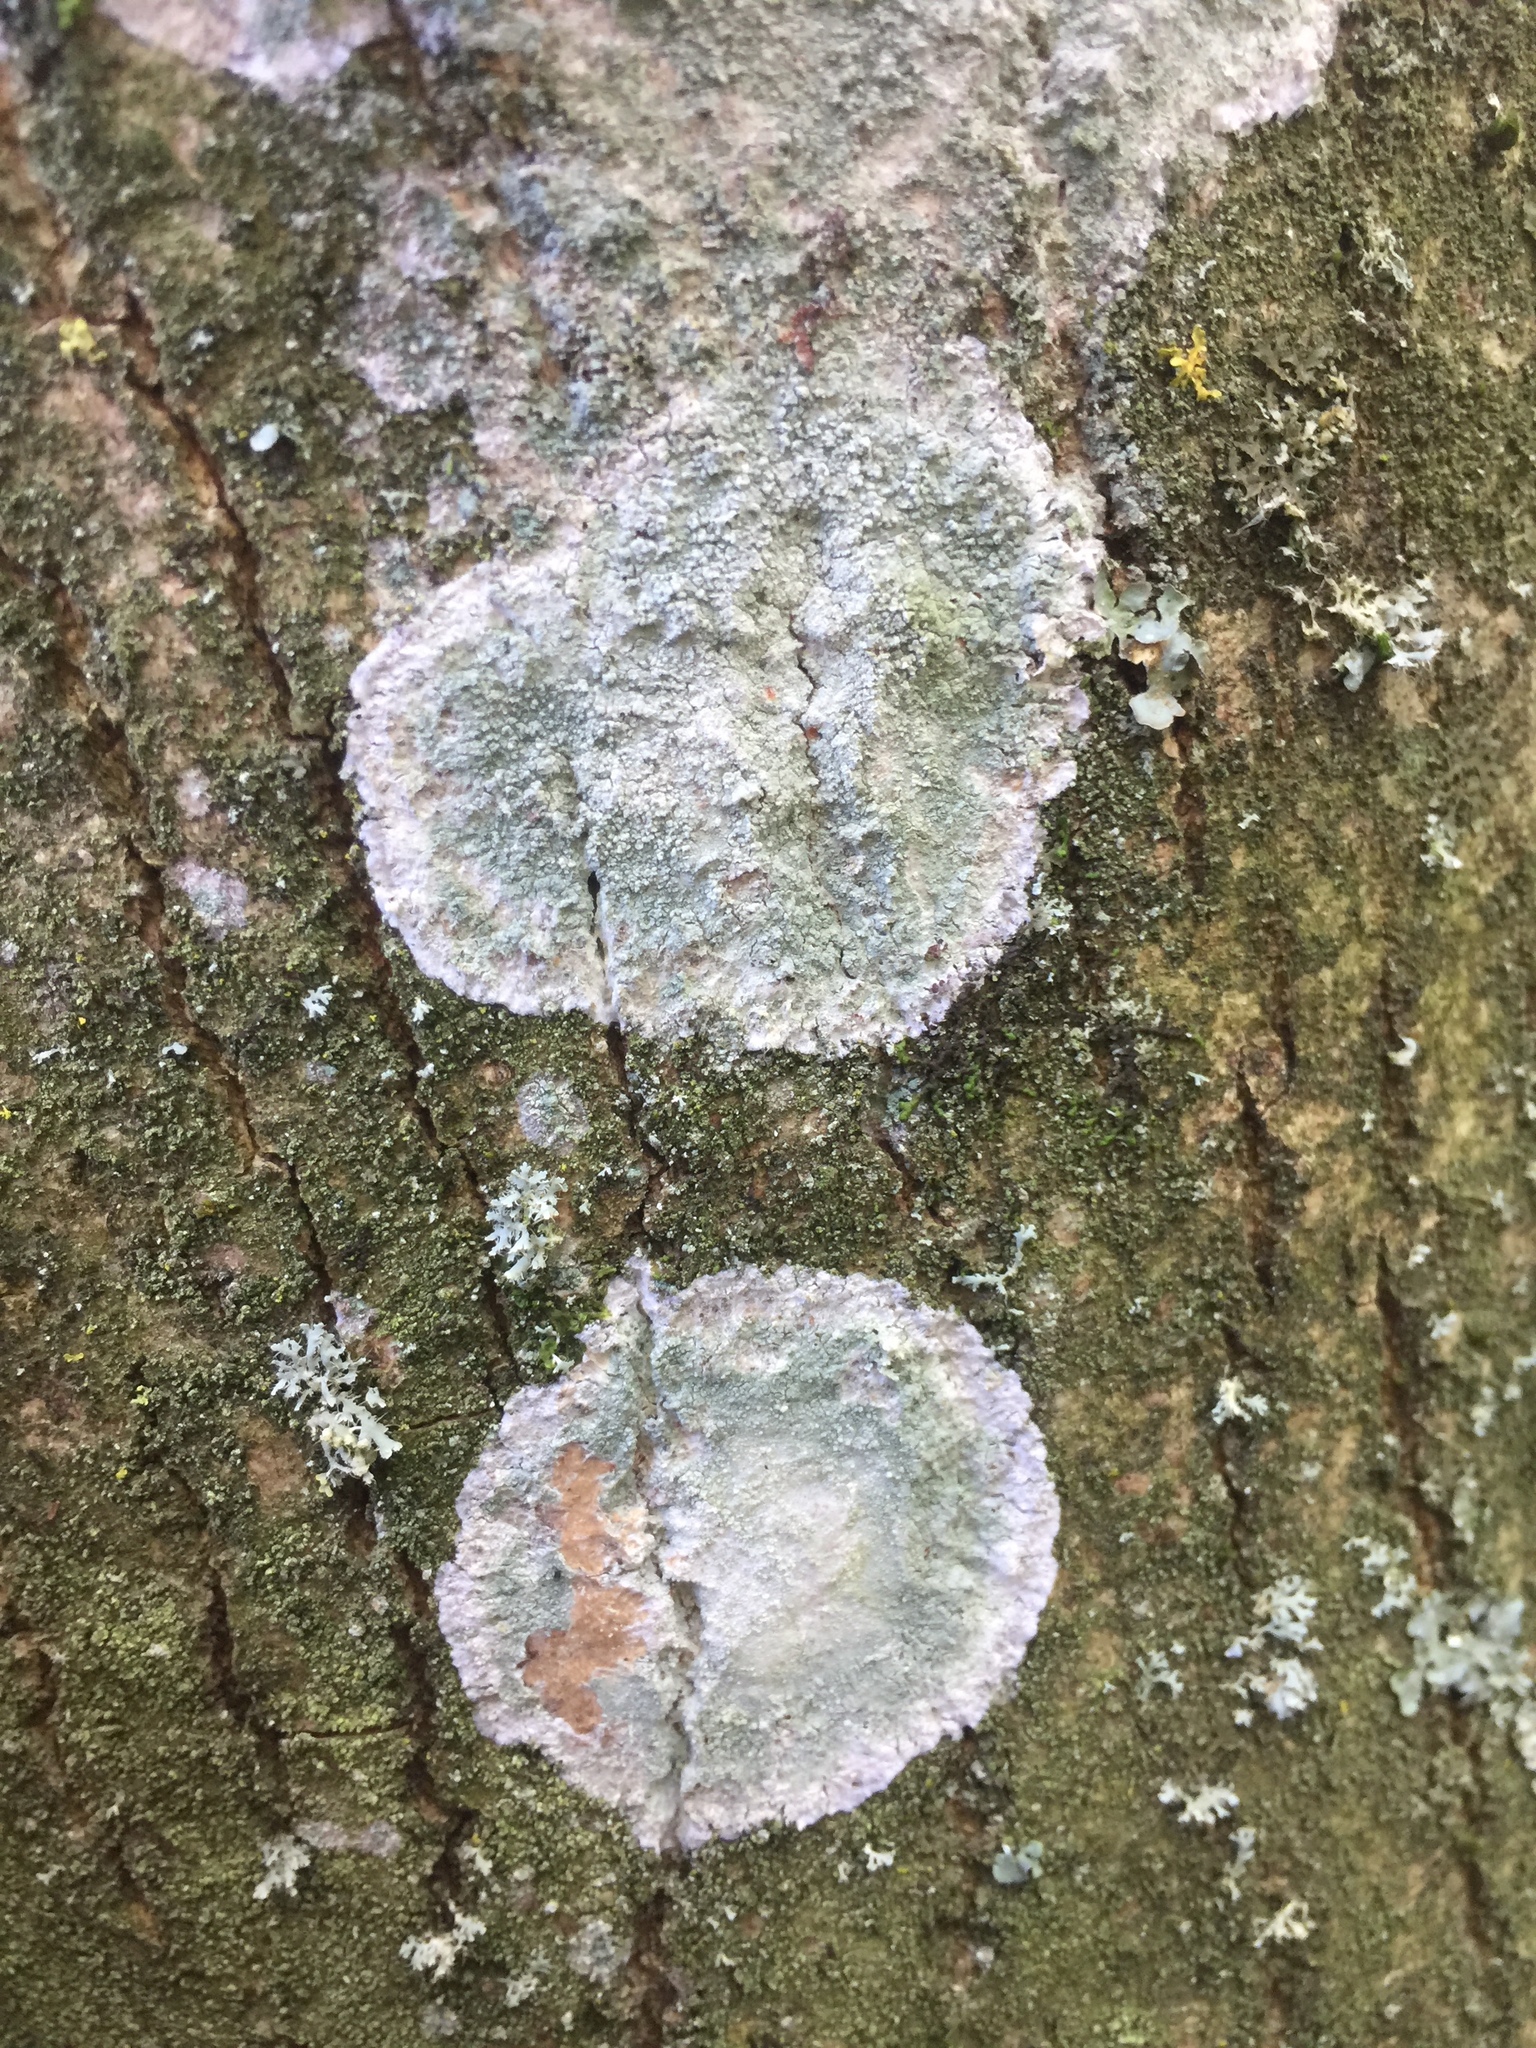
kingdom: Fungi
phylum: Ascomycota
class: Lecanoromycetes
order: Ostropales
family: Phlyctidaceae
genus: Phlyctis
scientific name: Phlyctis argena
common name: Whitewash lichen
